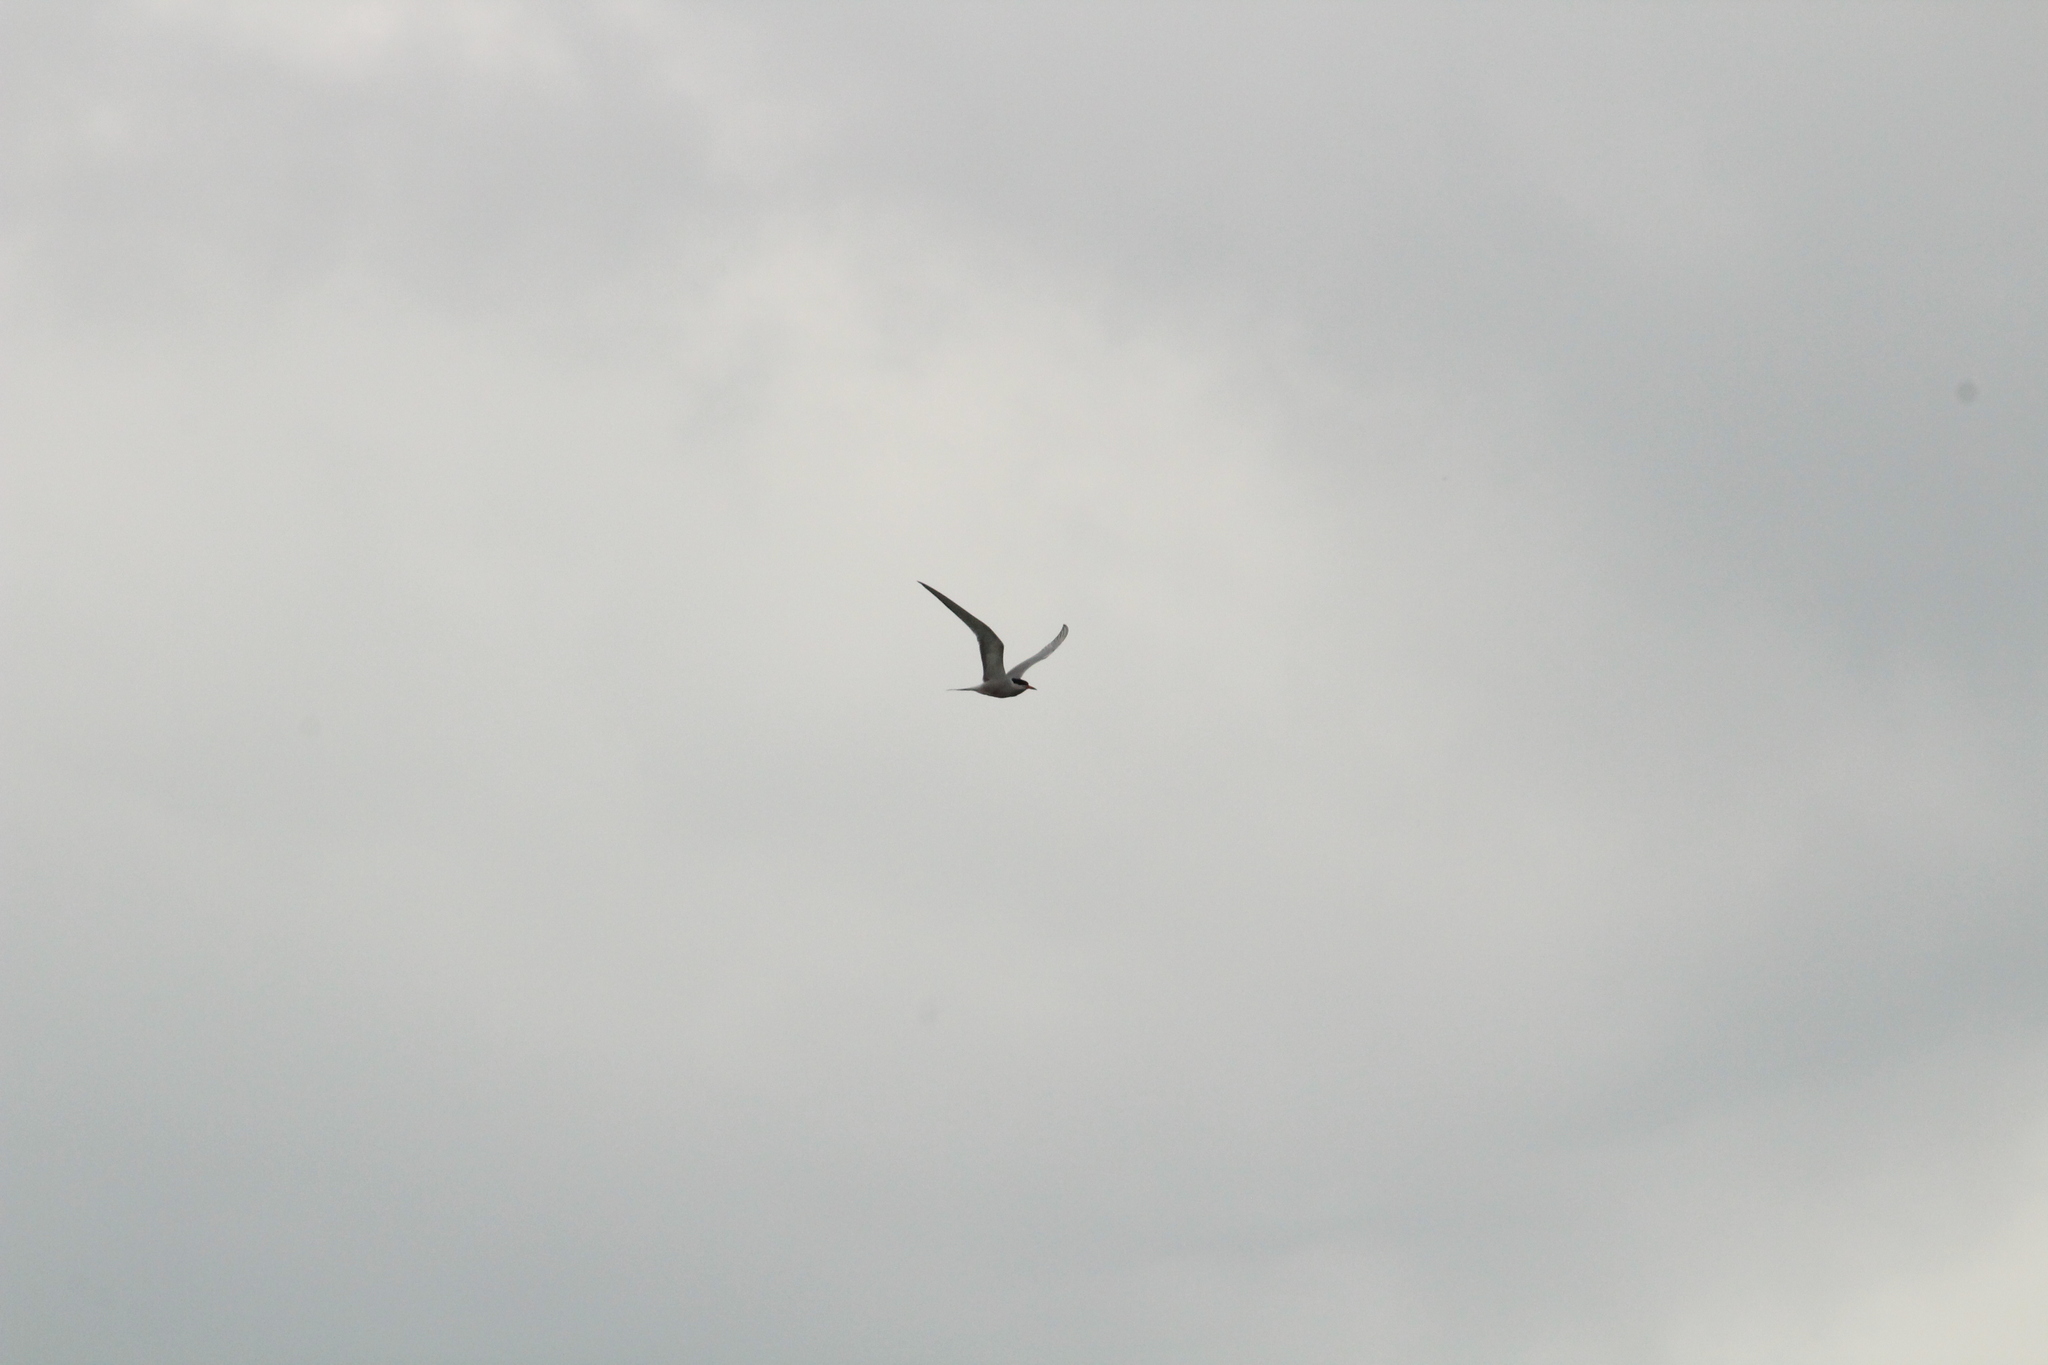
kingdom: Animalia
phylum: Chordata
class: Aves
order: Charadriiformes
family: Laridae
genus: Sterna
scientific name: Sterna hirundo
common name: Common tern
